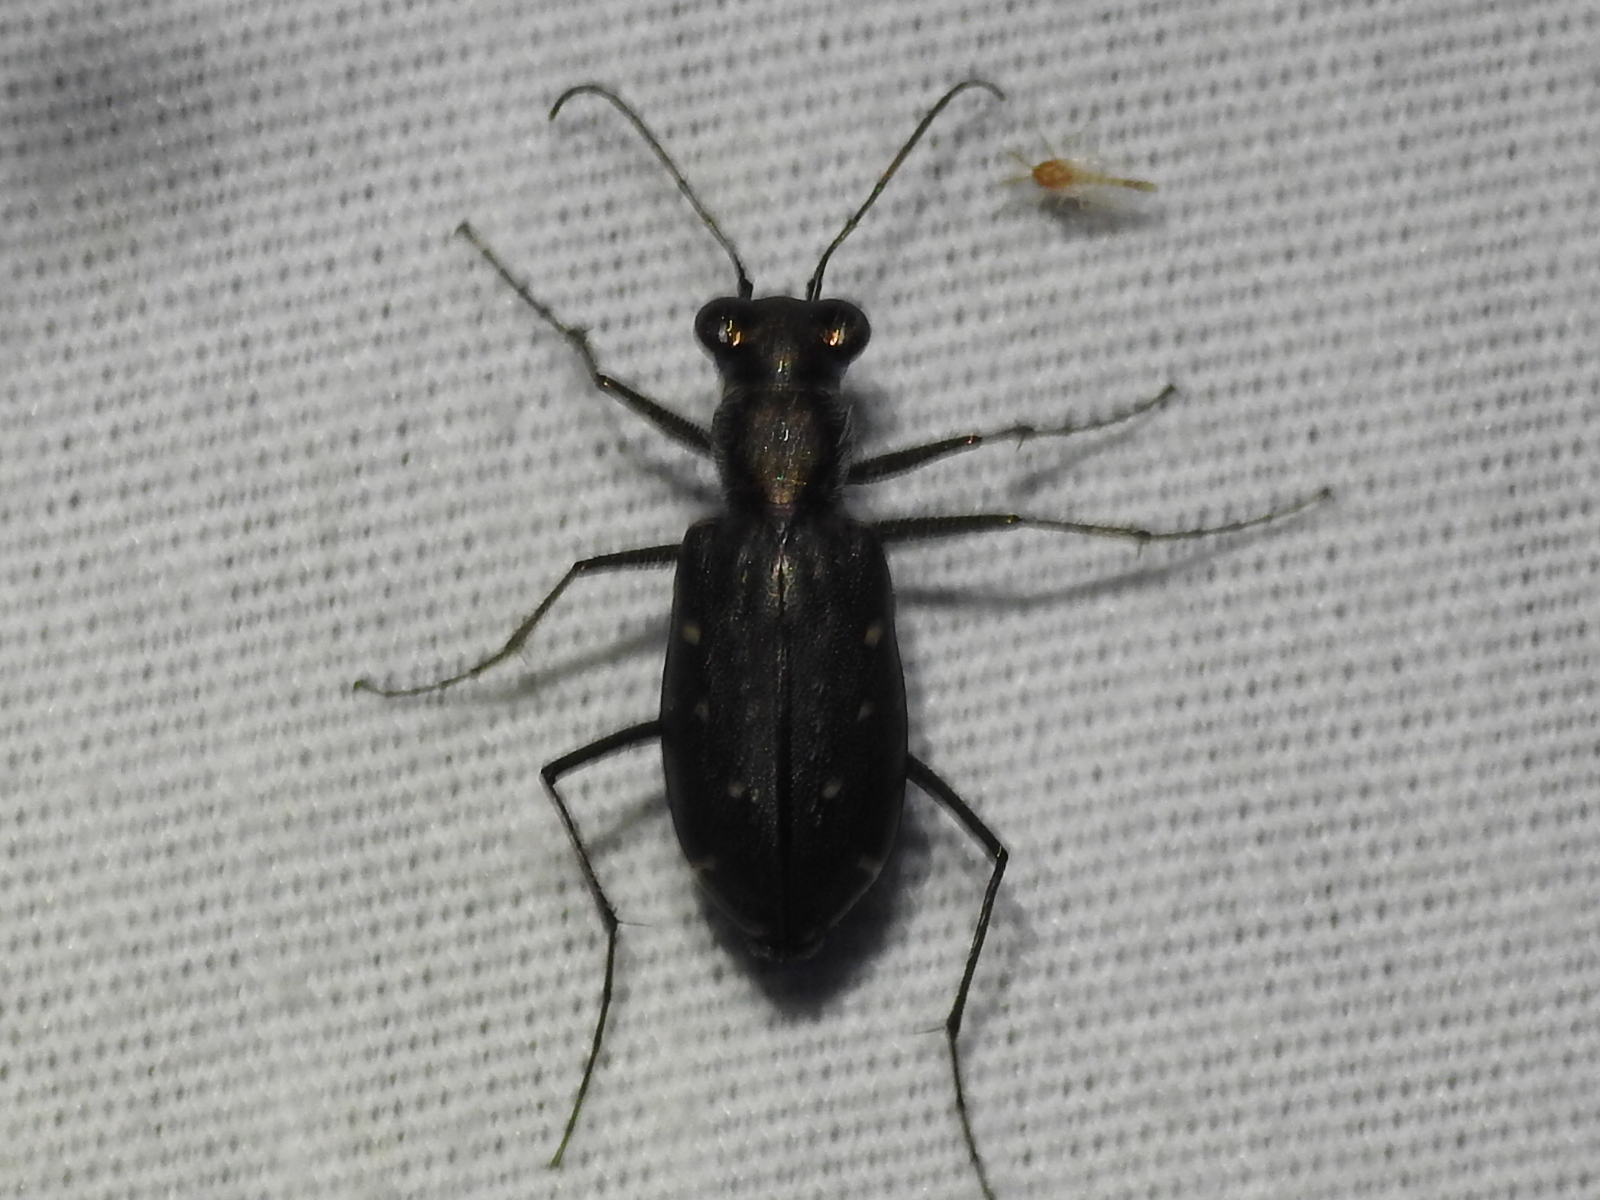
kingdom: Animalia
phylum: Arthropoda
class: Insecta
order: Coleoptera
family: Carabidae
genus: Cicindela
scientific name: Cicindela punctulata
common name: Punctured tiger beetle
